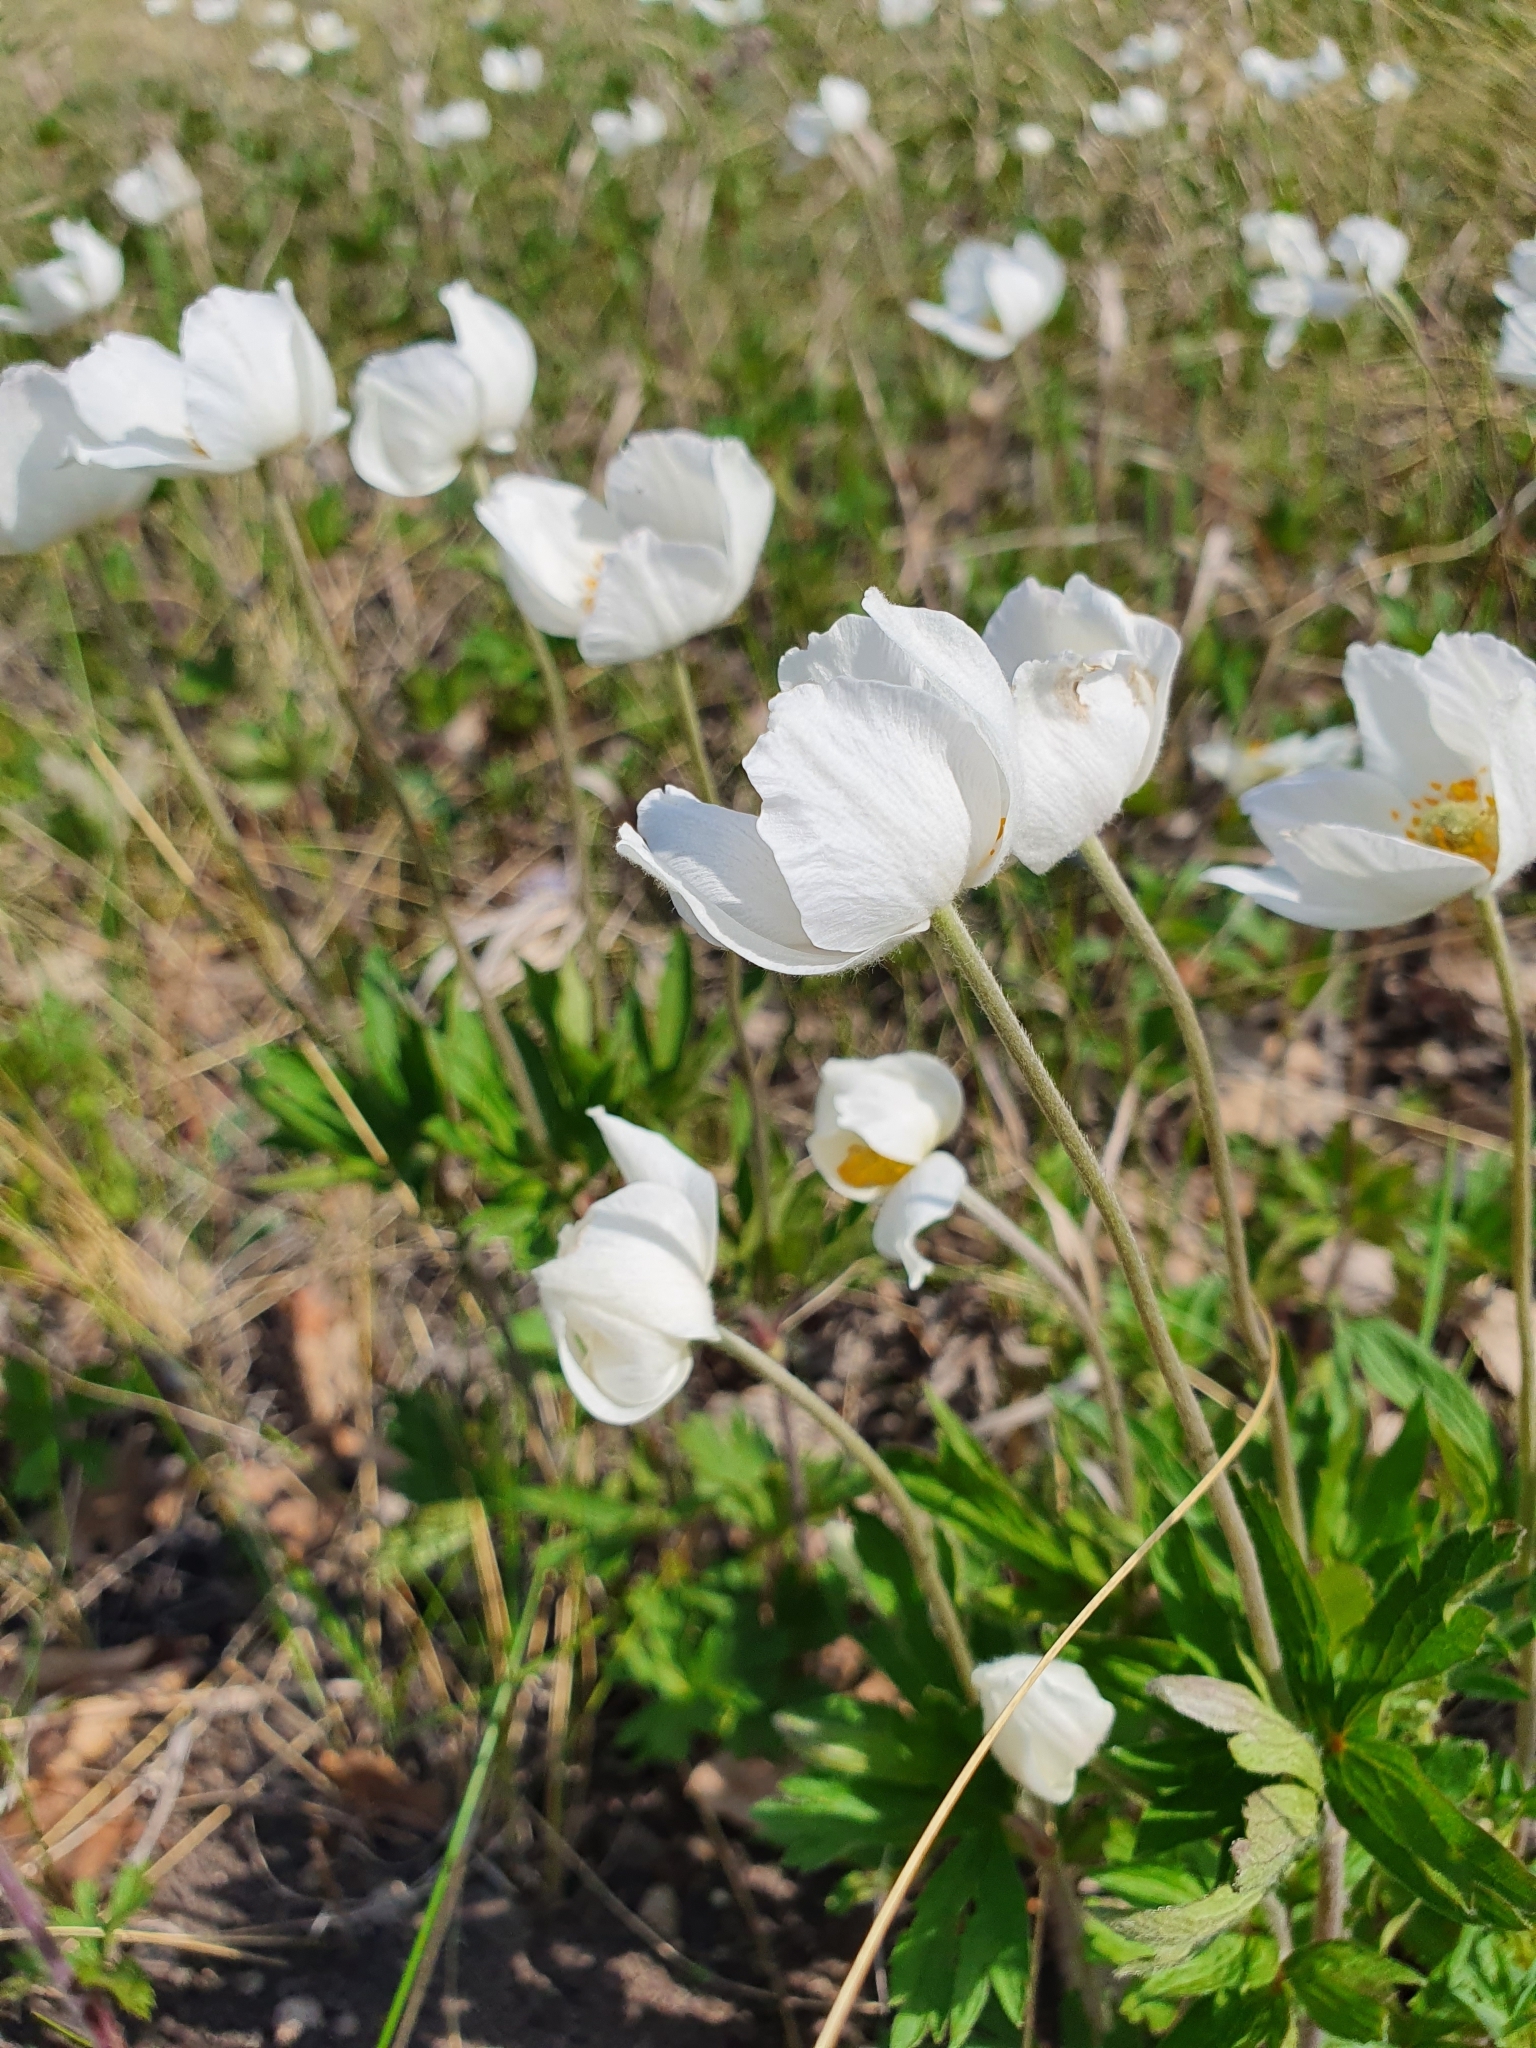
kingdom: Plantae
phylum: Tracheophyta
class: Magnoliopsida
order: Ranunculales
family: Ranunculaceae
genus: Anemone
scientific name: Anemone sylvestris
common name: Snowdrop anemone
